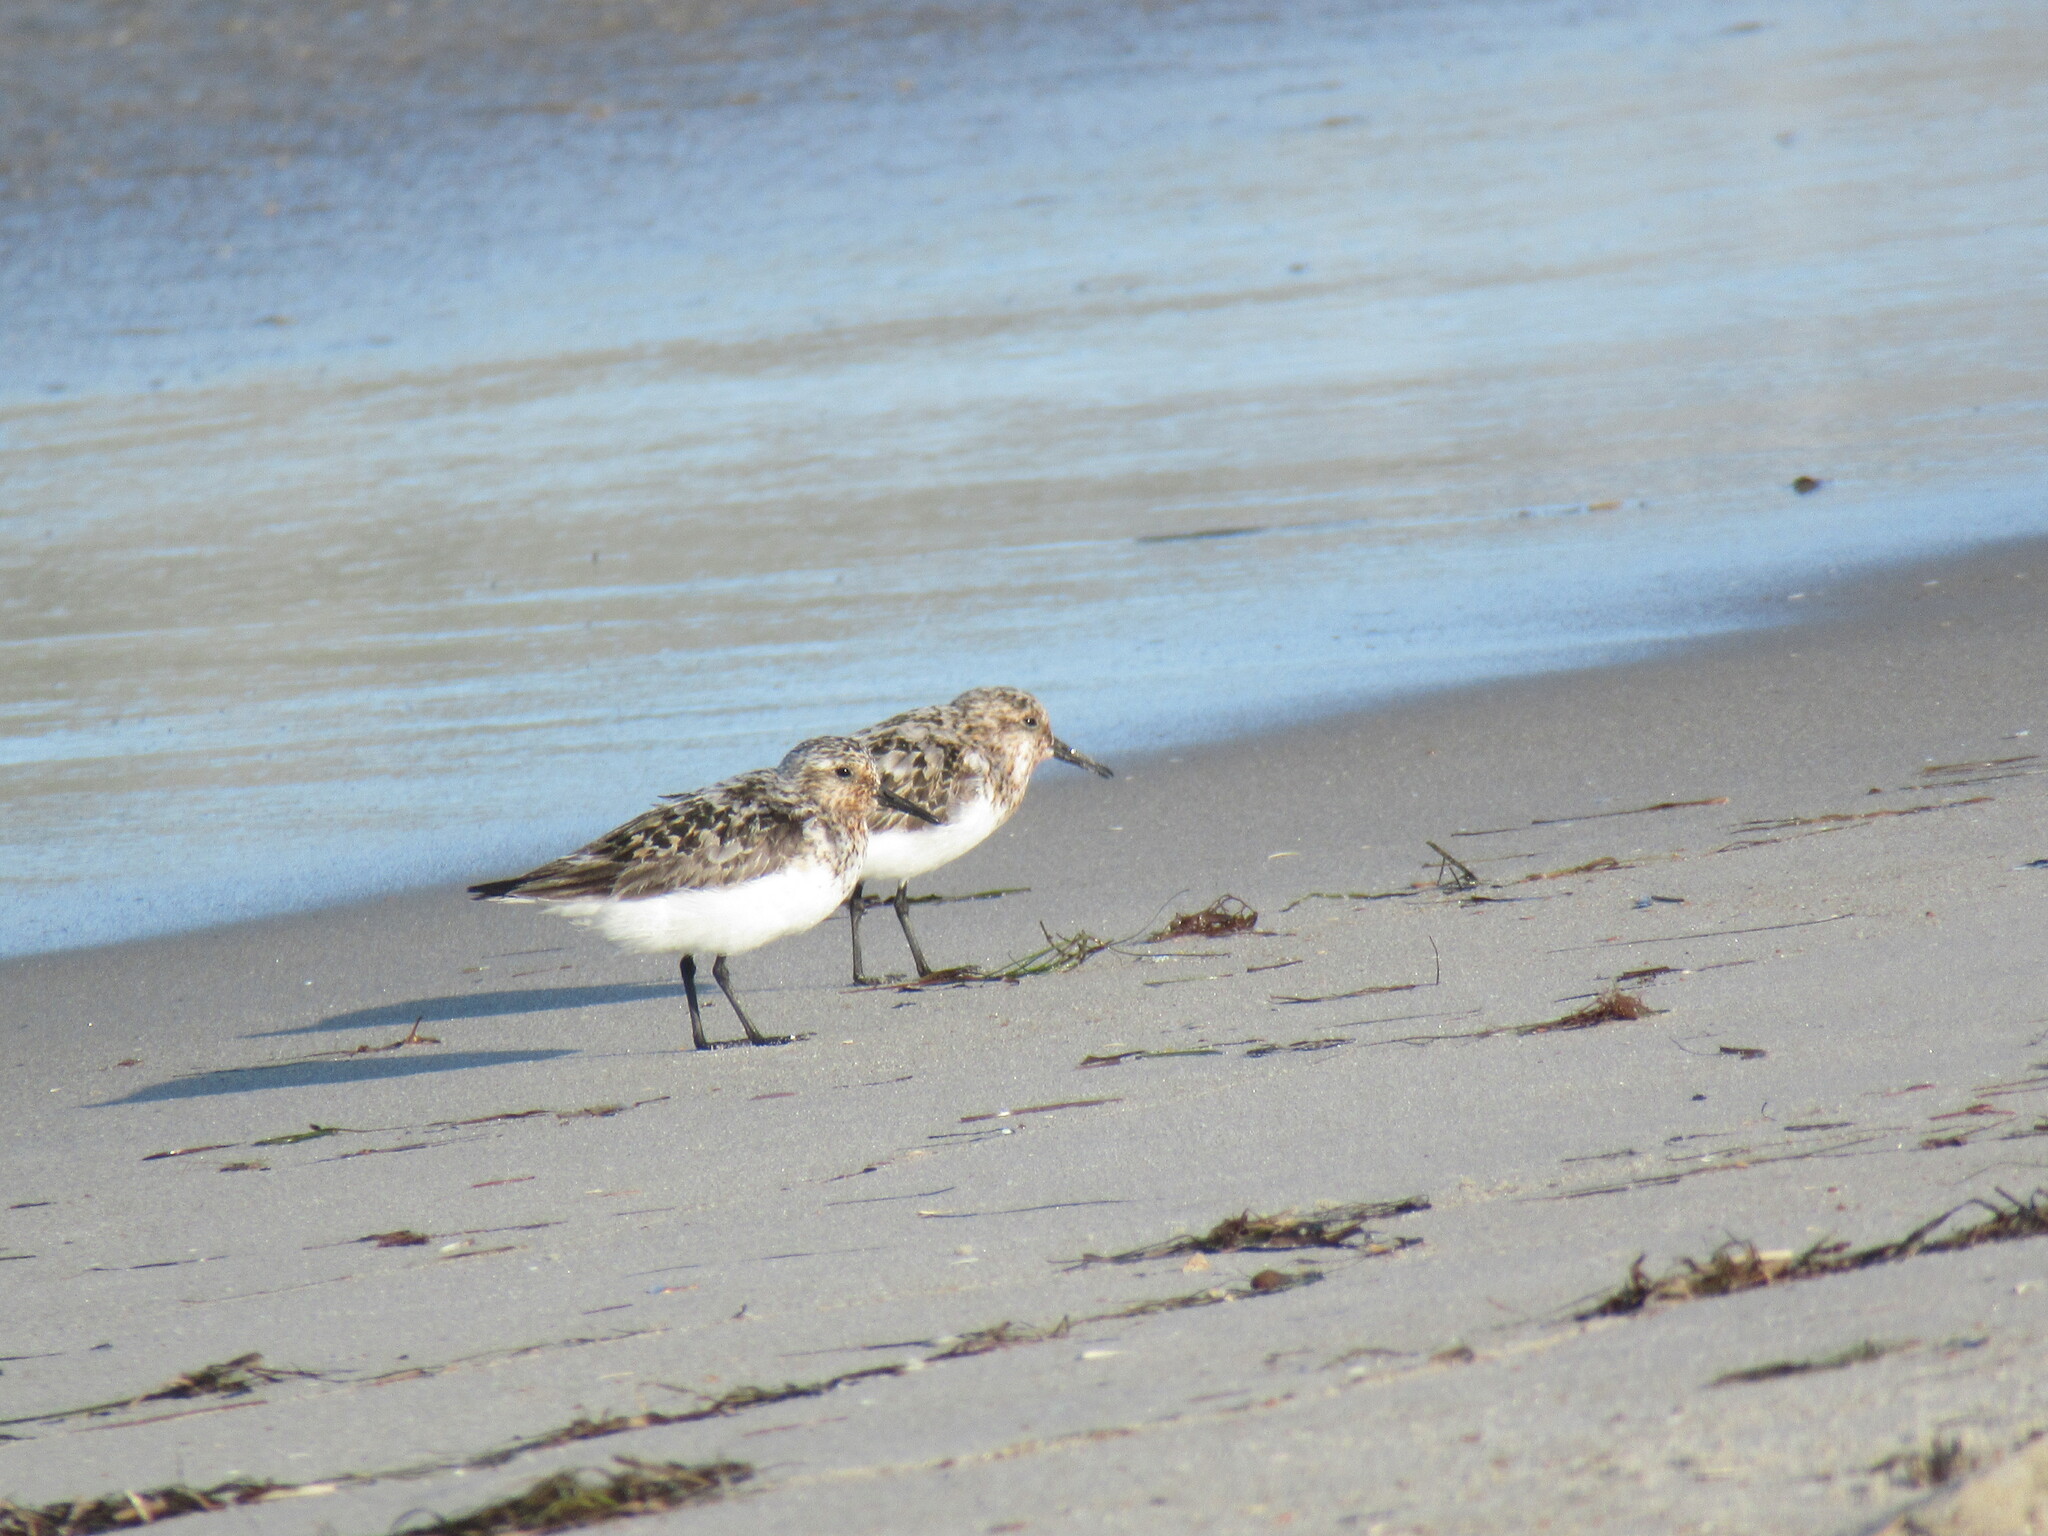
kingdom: Animalia
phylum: Chordata
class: Aves
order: Charadriiformes
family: Scolopacidae
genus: Calidris
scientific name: Calidris alba
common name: Sanderling
